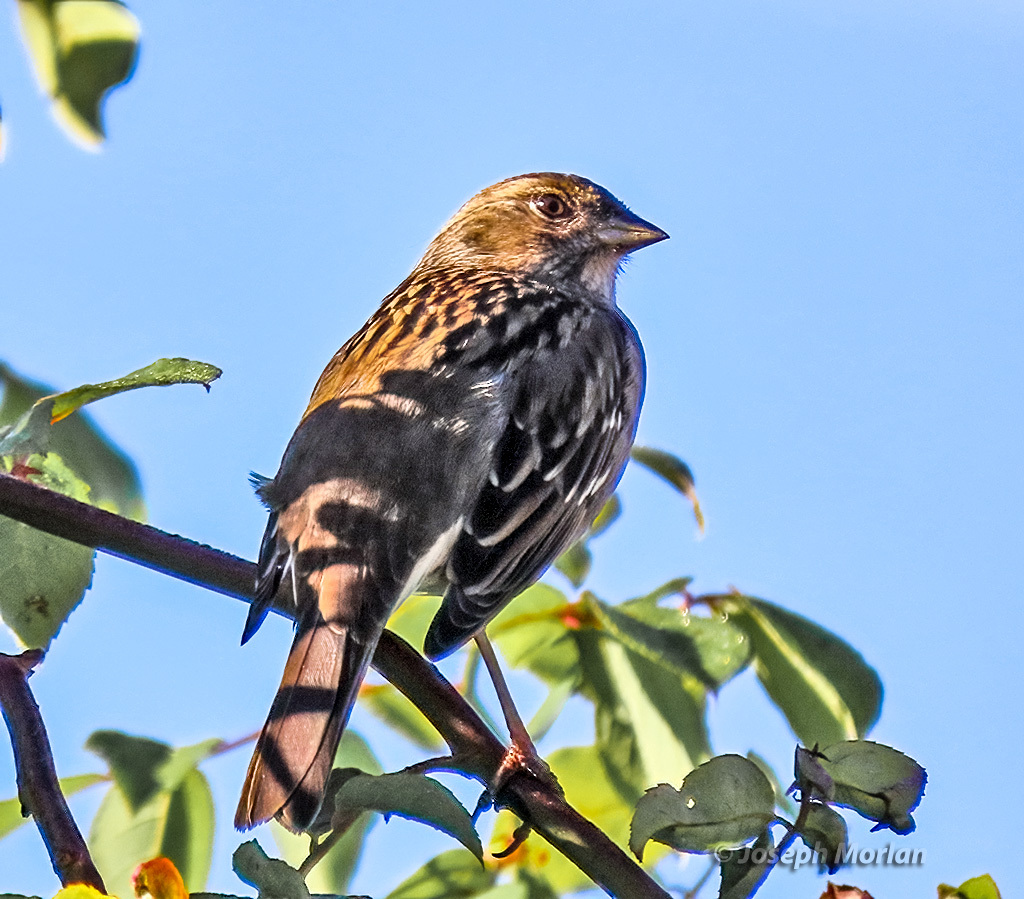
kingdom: Animalia
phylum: Chordata
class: Aves
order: Passeriformes
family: Passerellidae
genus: Zonotrichia
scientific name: Zonotrichia atricapilla
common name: Golden-crowned sparrow
